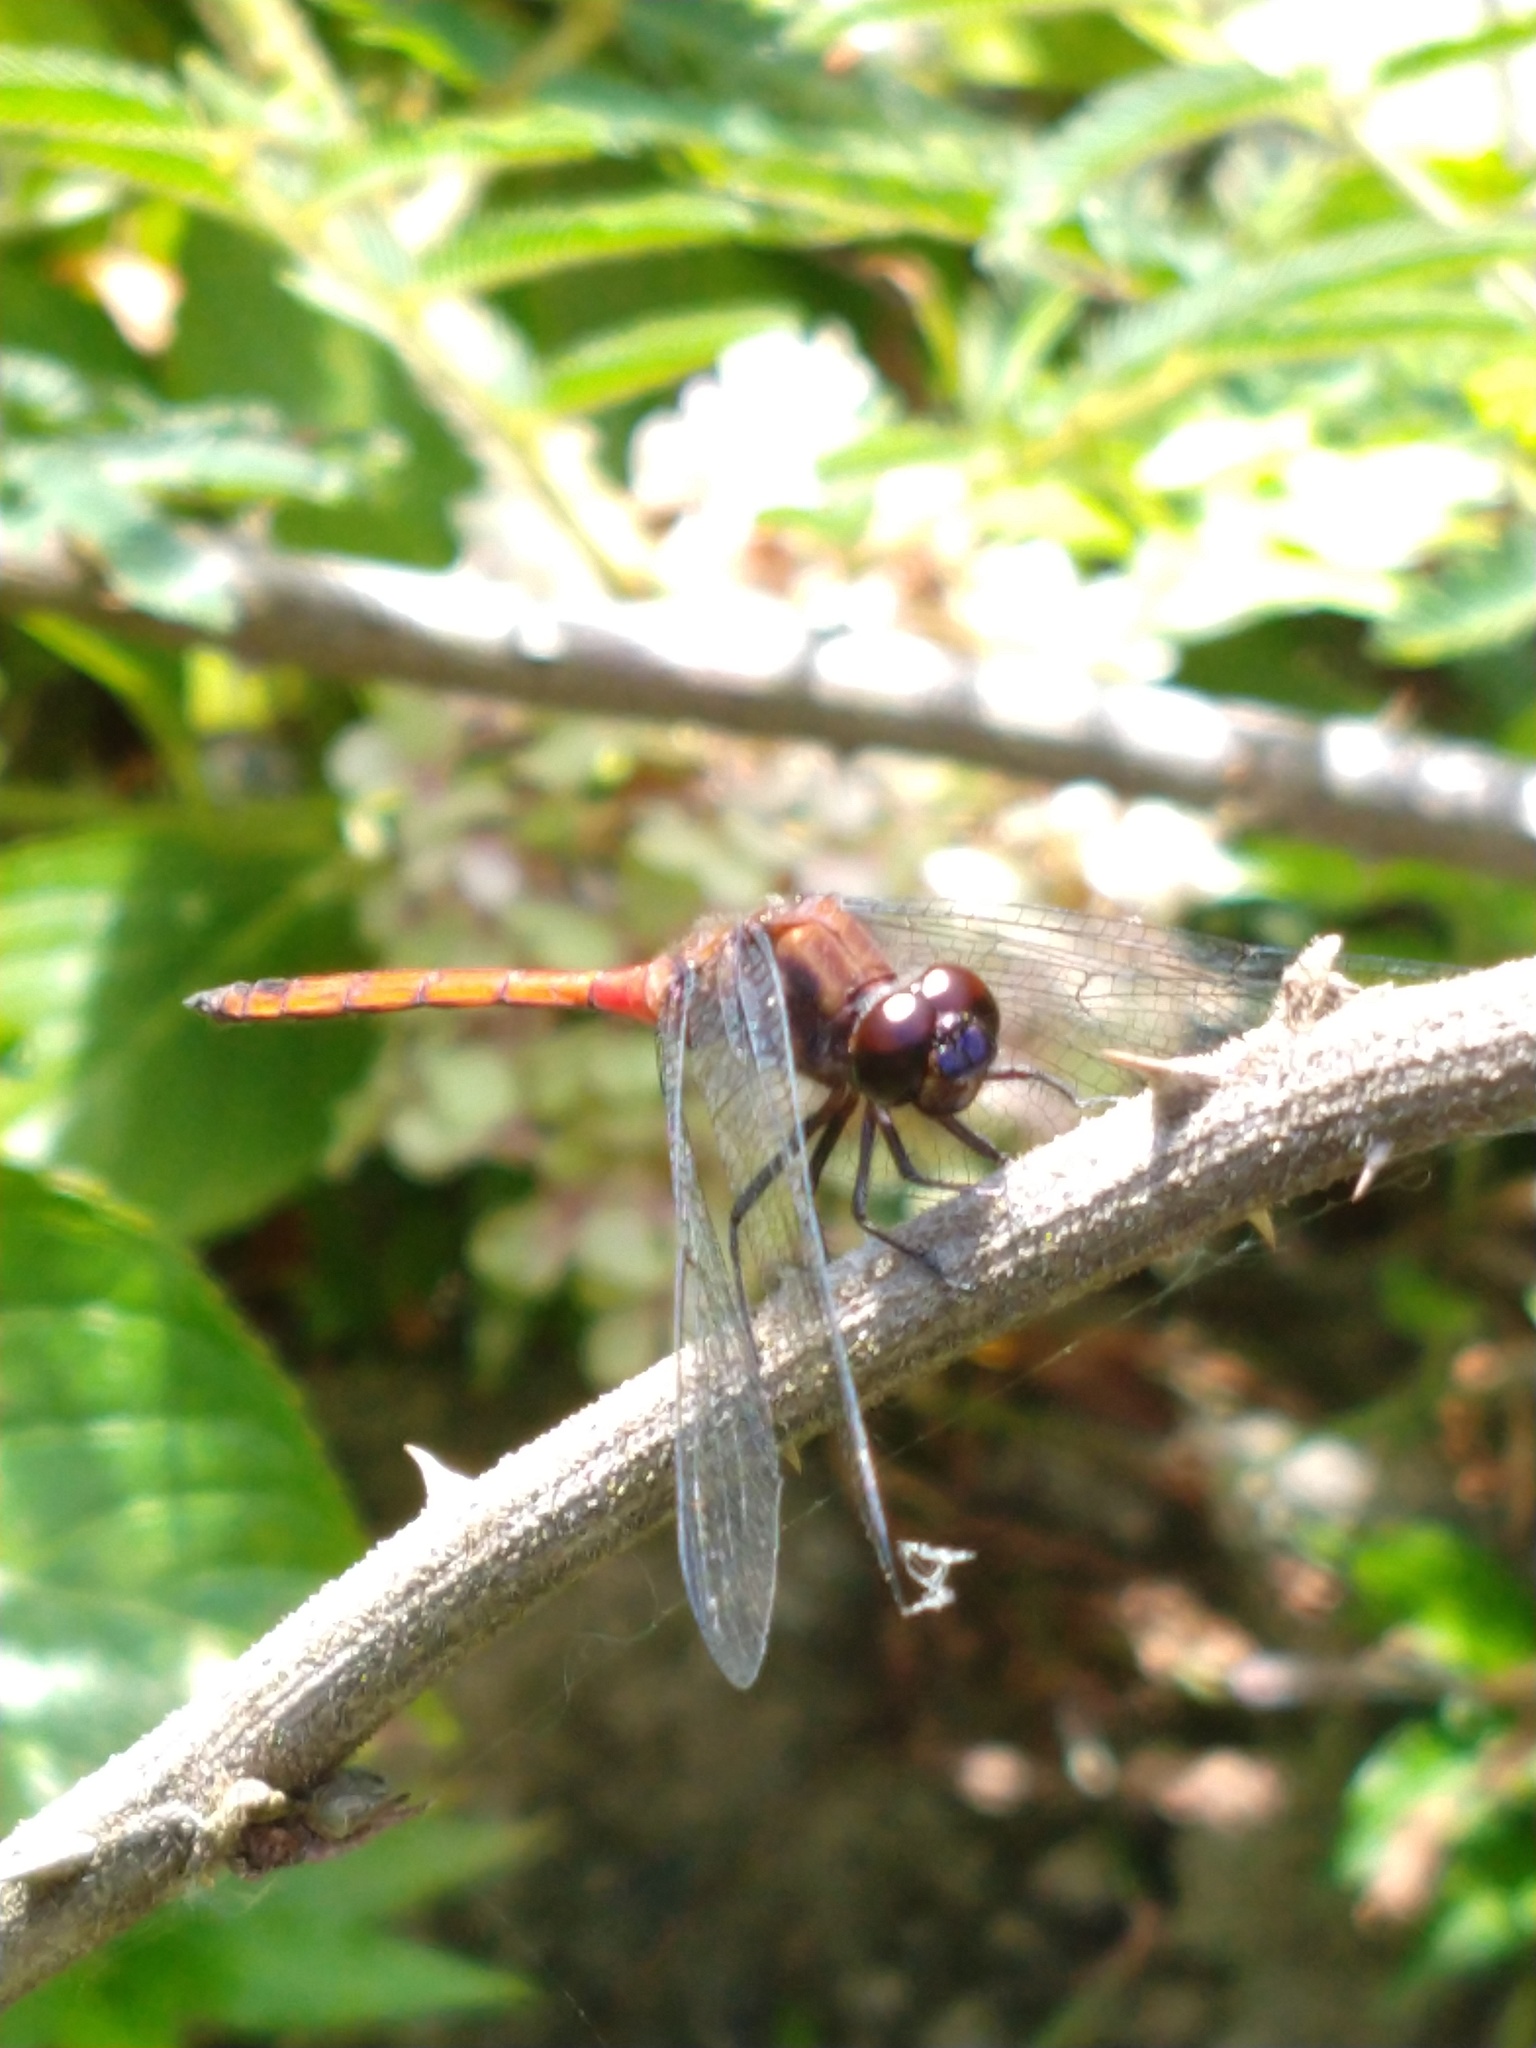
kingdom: Animalia
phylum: Arthropoda
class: Insecta
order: Odonata
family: Libellulidae
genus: Orthemis
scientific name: Orthemis ambinigra
